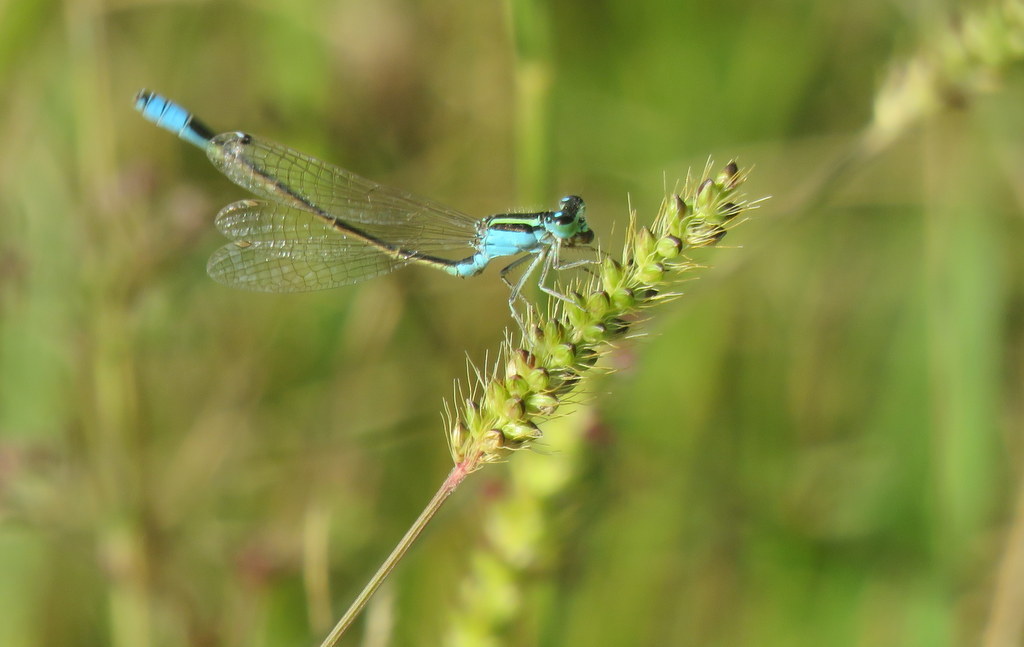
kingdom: Animalia
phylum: Arthropoda
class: Insecta
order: Odonata
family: Coenagrionidae
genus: Ischnura
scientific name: Ischnura fluviatilis
